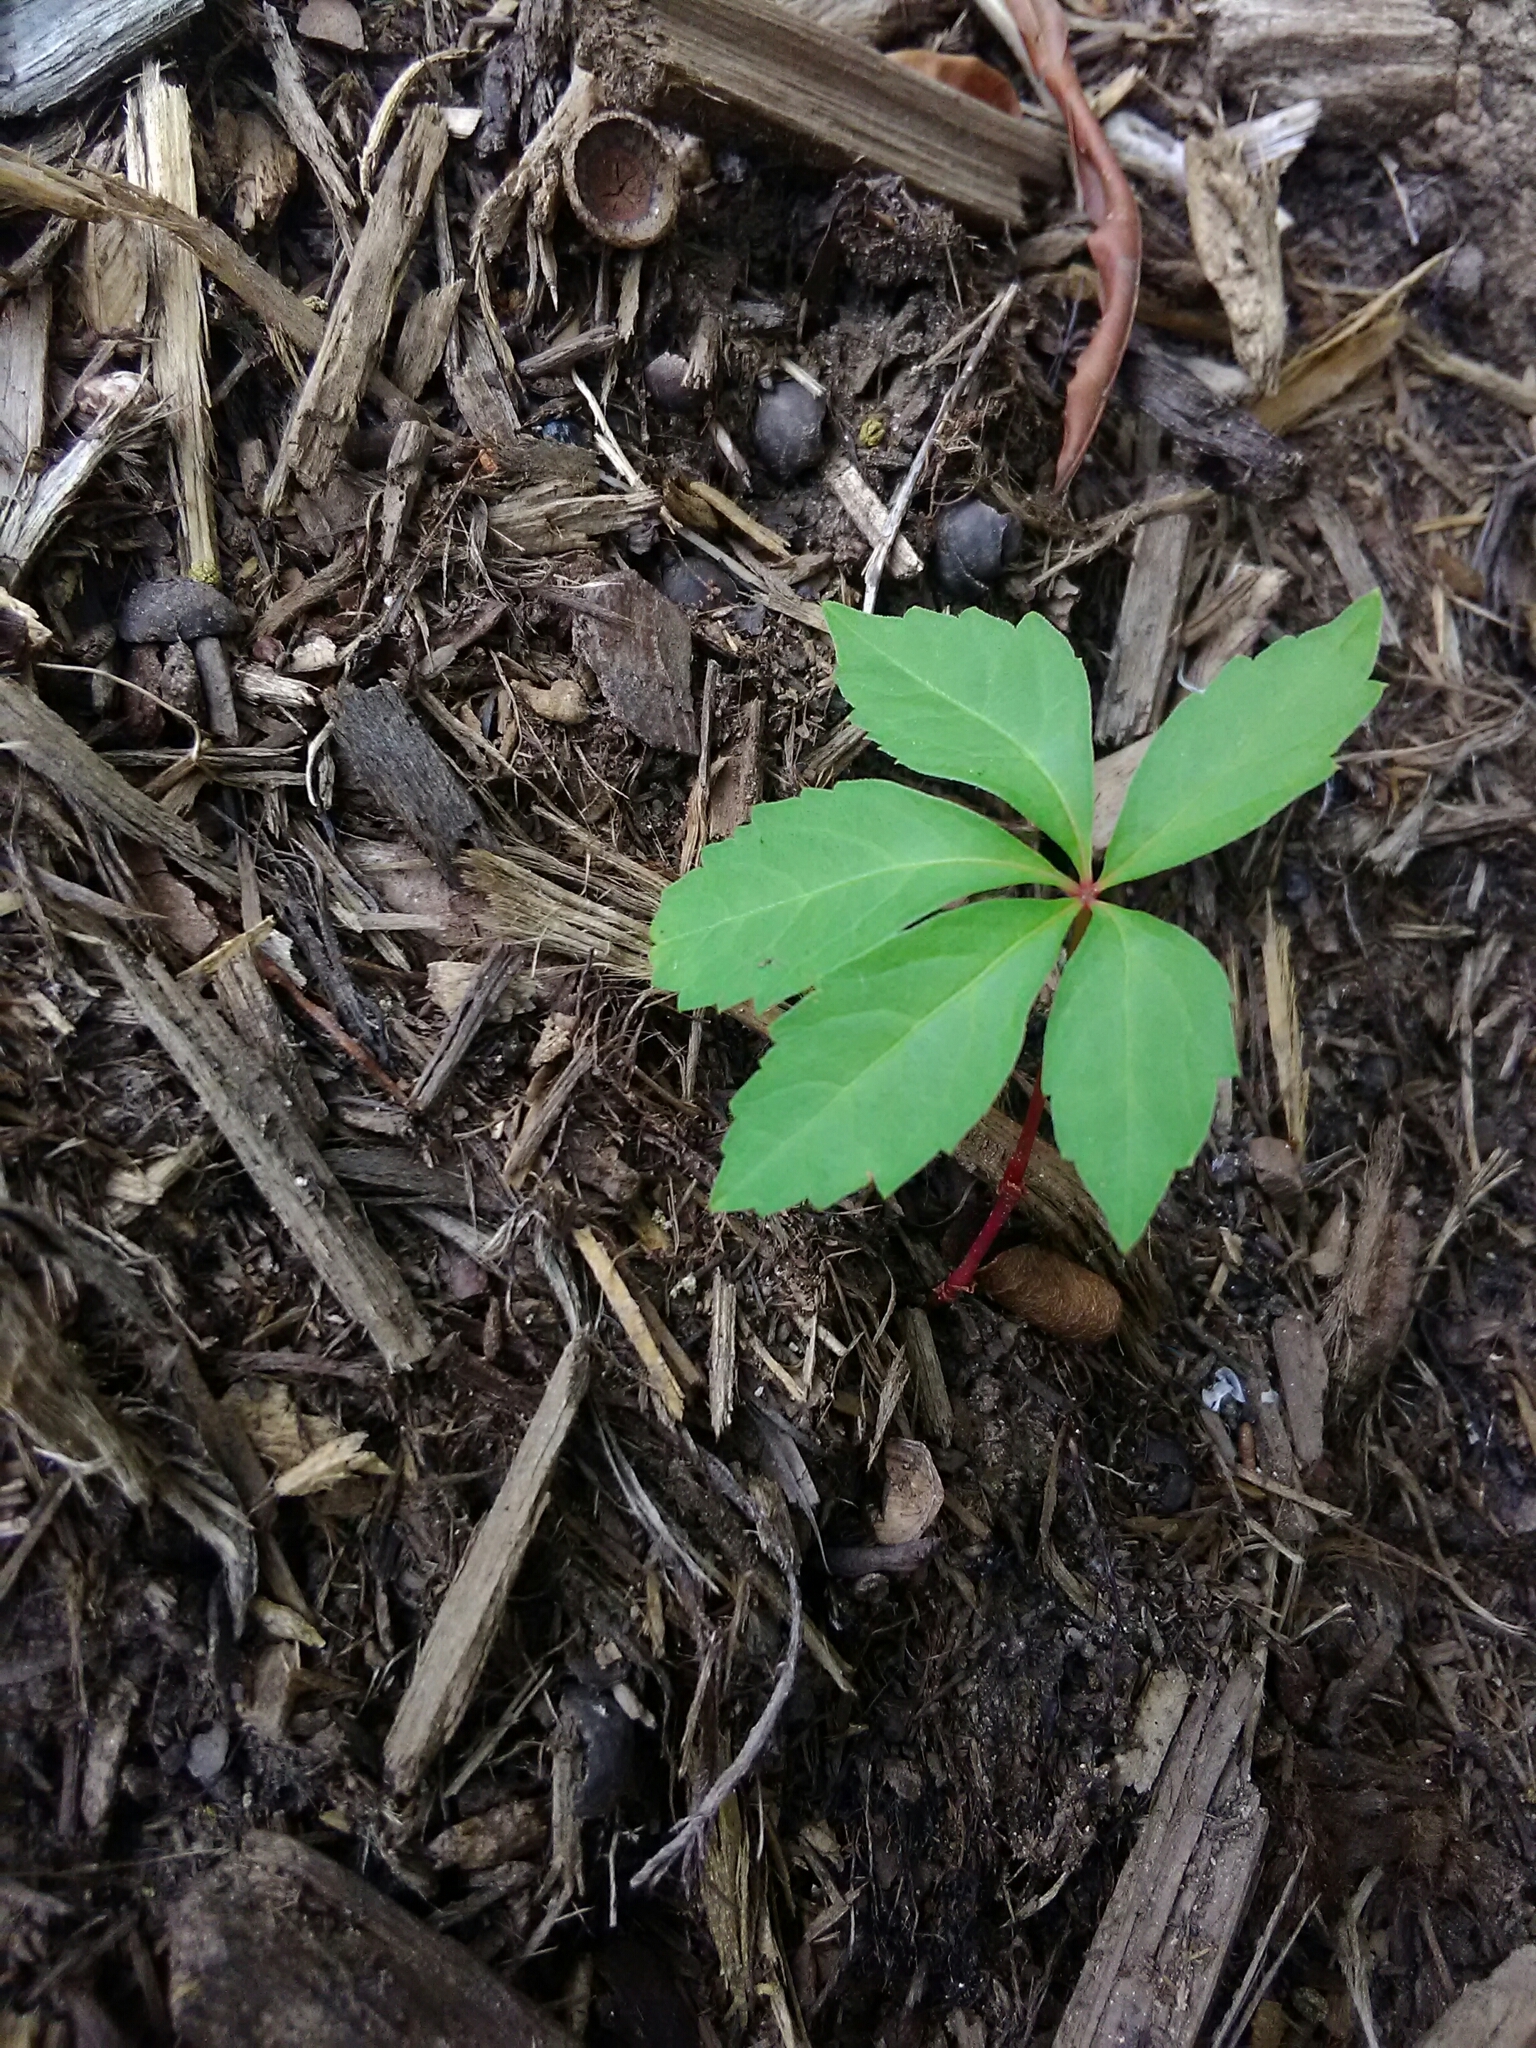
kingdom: Plantae
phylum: Tracheophyta
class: Magnoliopsida
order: Vitales
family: Vitaceae
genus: Parthenocissus
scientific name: Parthenocissus quinquefolia
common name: Virginia-creeper
